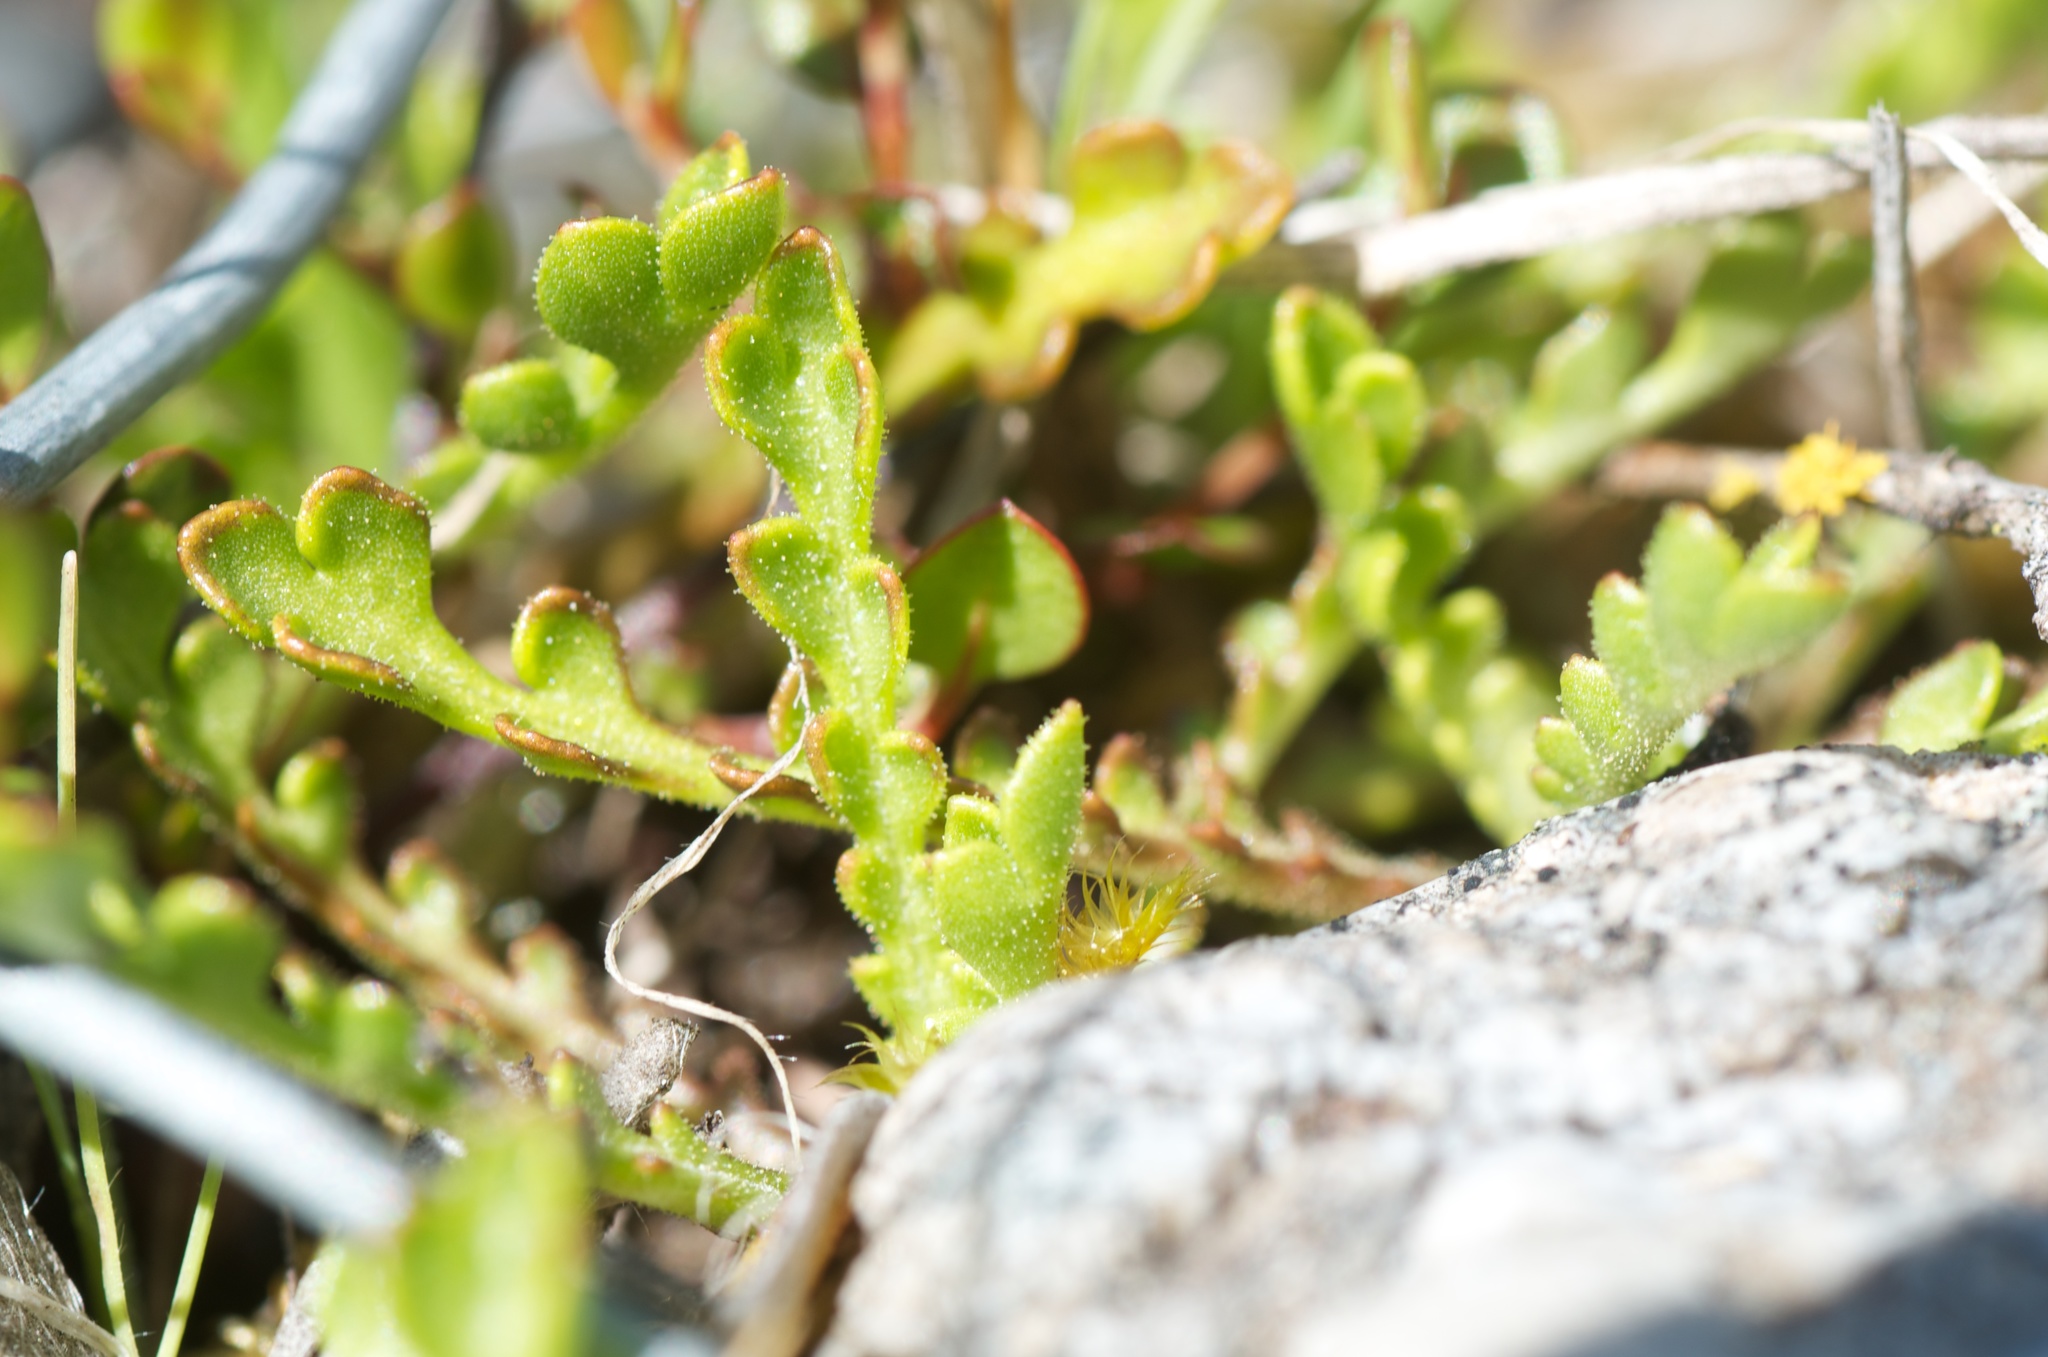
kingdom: Plantae
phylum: Tracheophyta
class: Magnoliopsida
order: Asterales
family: Asteraceae
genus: Brachyscome
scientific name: Brachyscome pinnata
